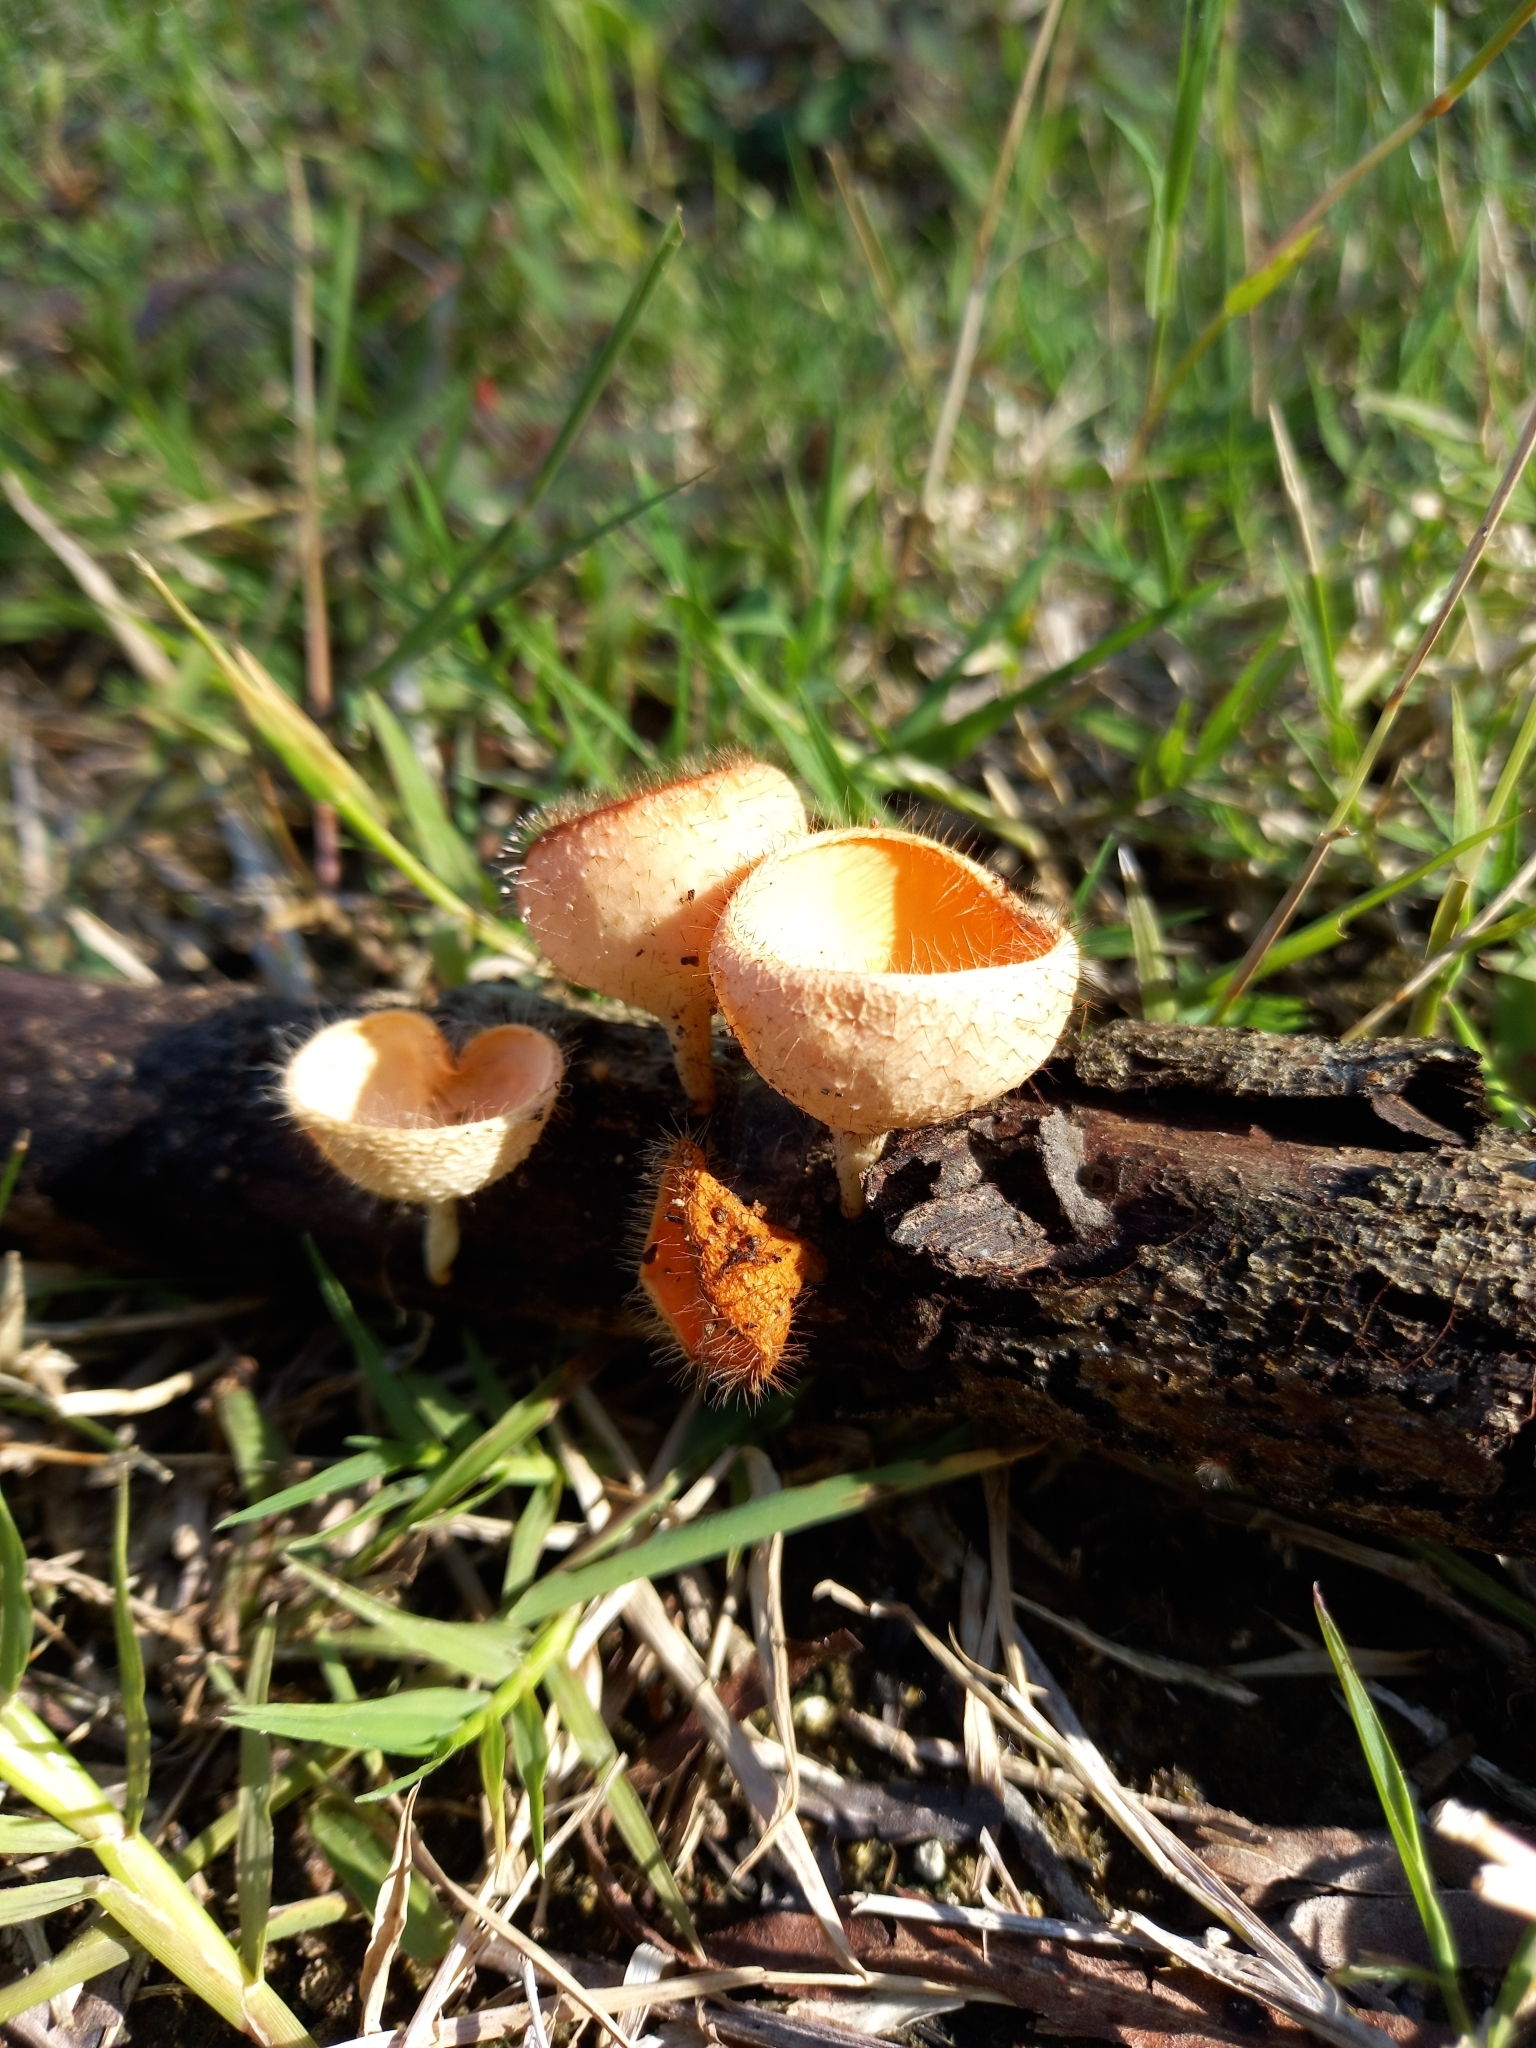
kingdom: Fungi
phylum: Ascomycota
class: Pezizomycetes
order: Pezizales
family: Sarcoscyphaceae
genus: Cookeina
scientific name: Cookeina tricholoma
